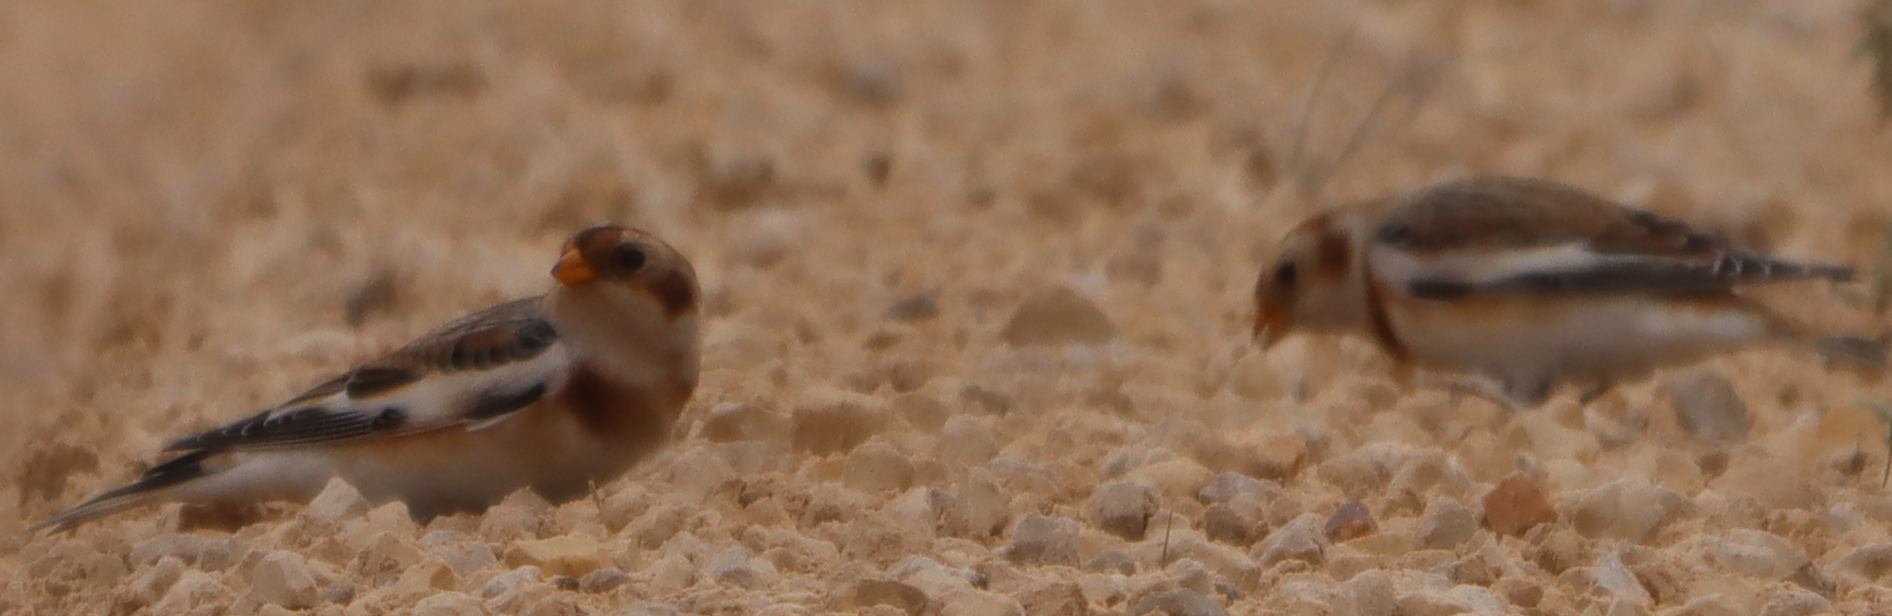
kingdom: Animalia
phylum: Chordata
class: Aves
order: Passeriformes
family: Calcariidae
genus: Plectrophenax
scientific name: Plectrophenax nivalis
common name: Snow bunting
